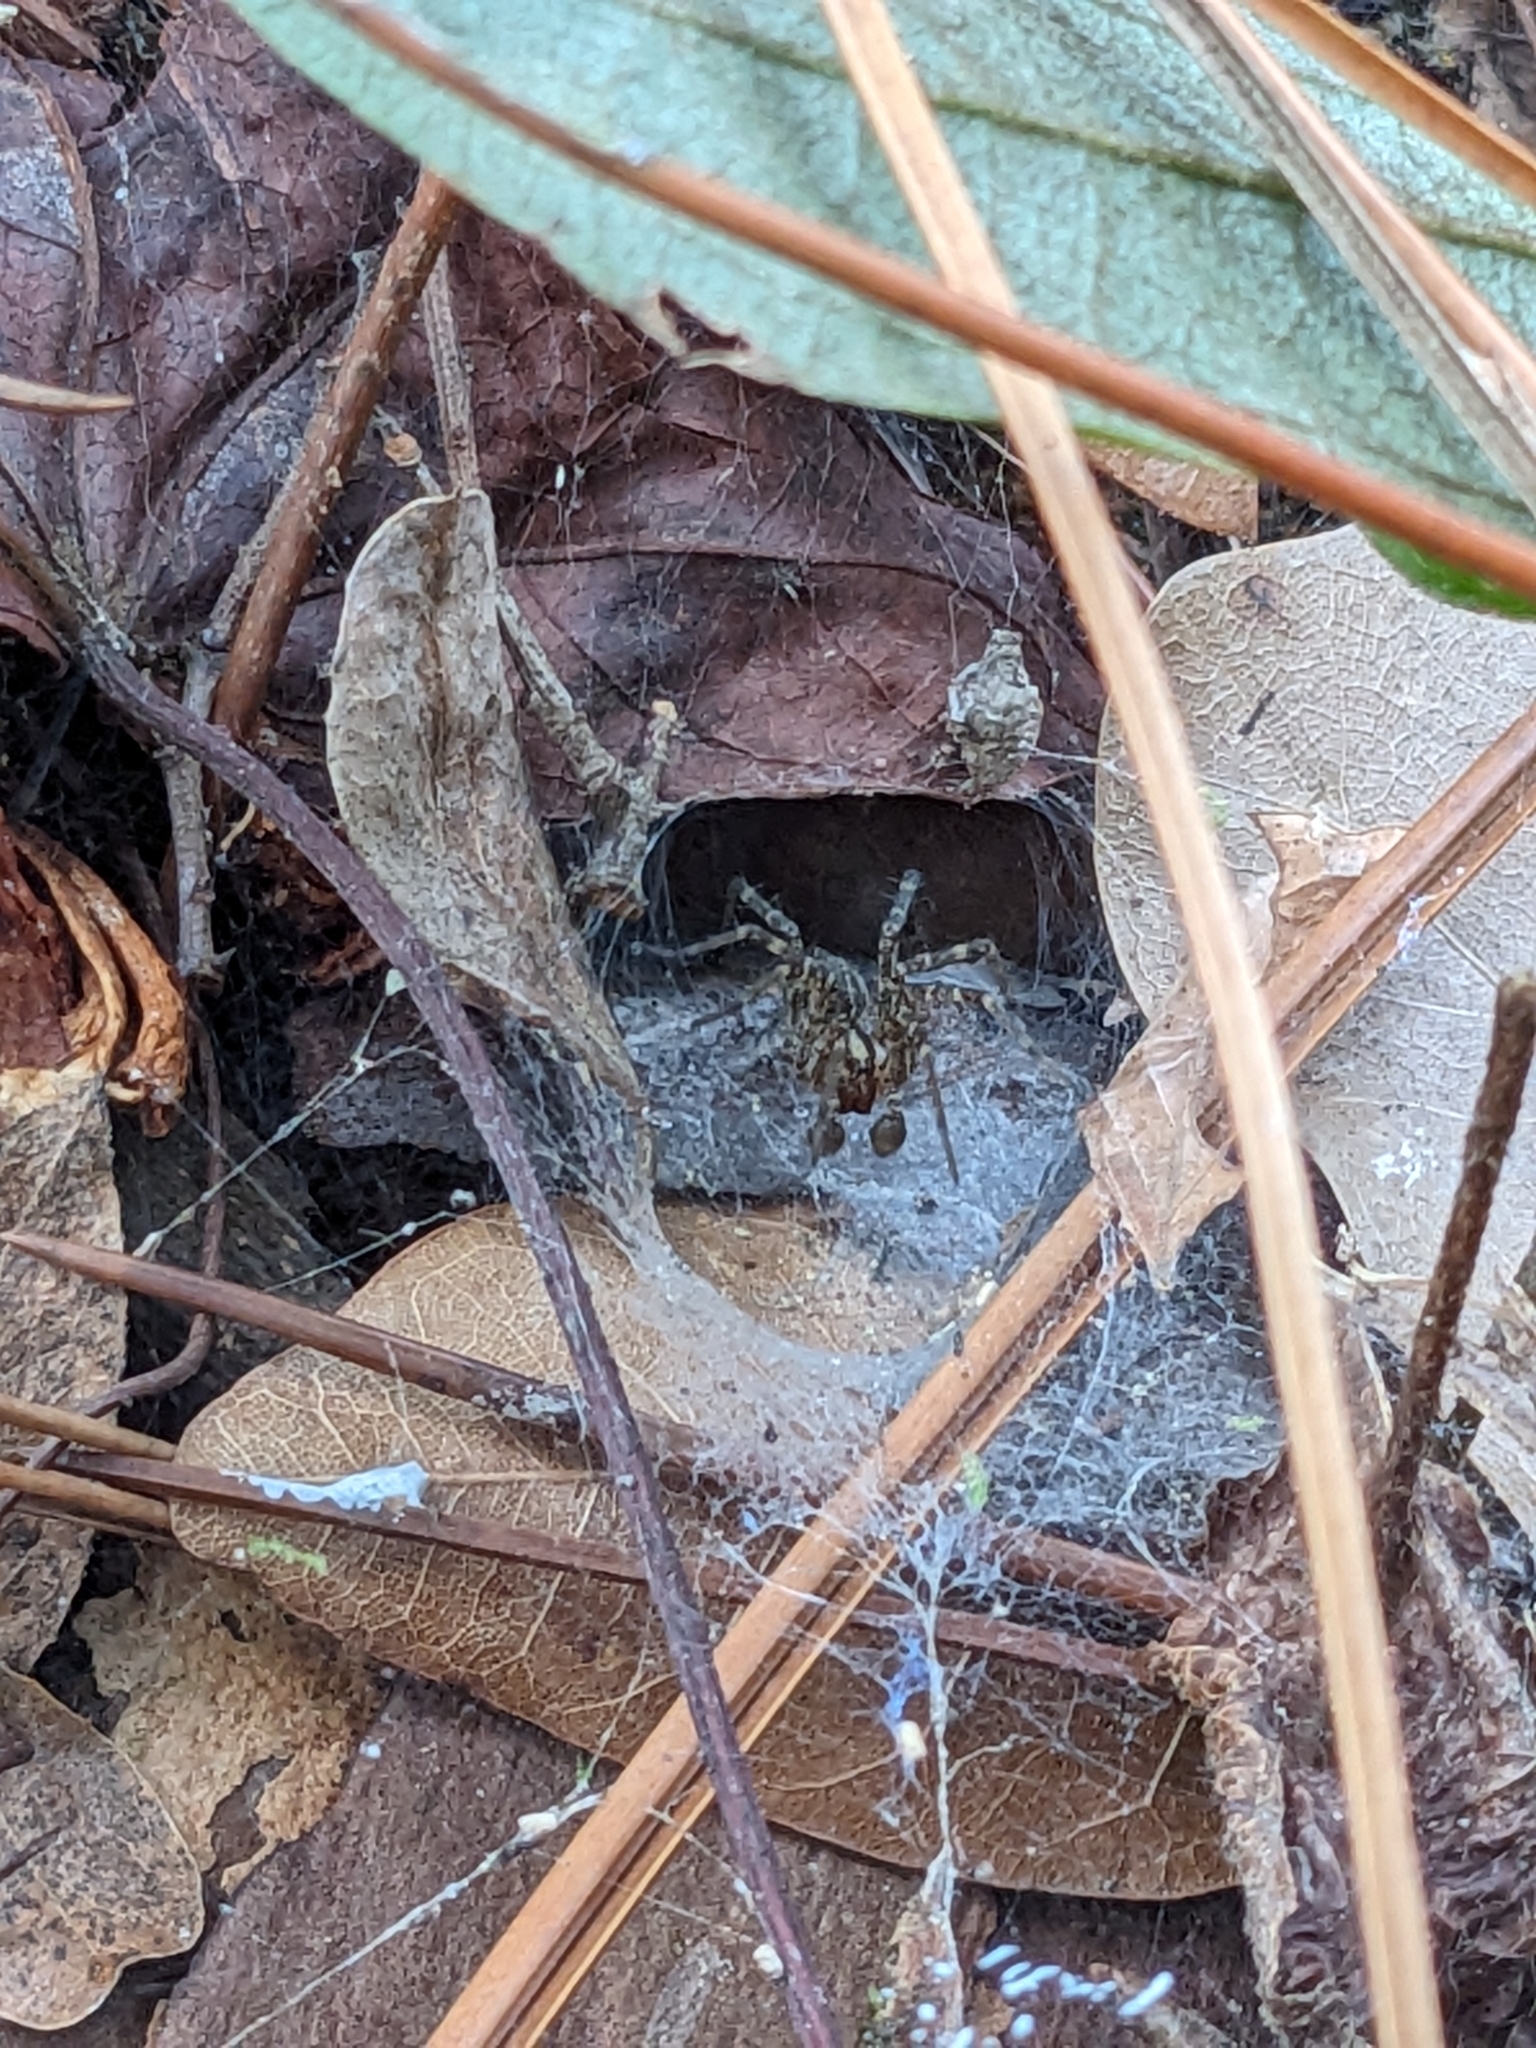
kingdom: Animalia
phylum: Arthropoda
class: Arachnida
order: Araneae
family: Agelenidae
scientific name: Agelenidae
